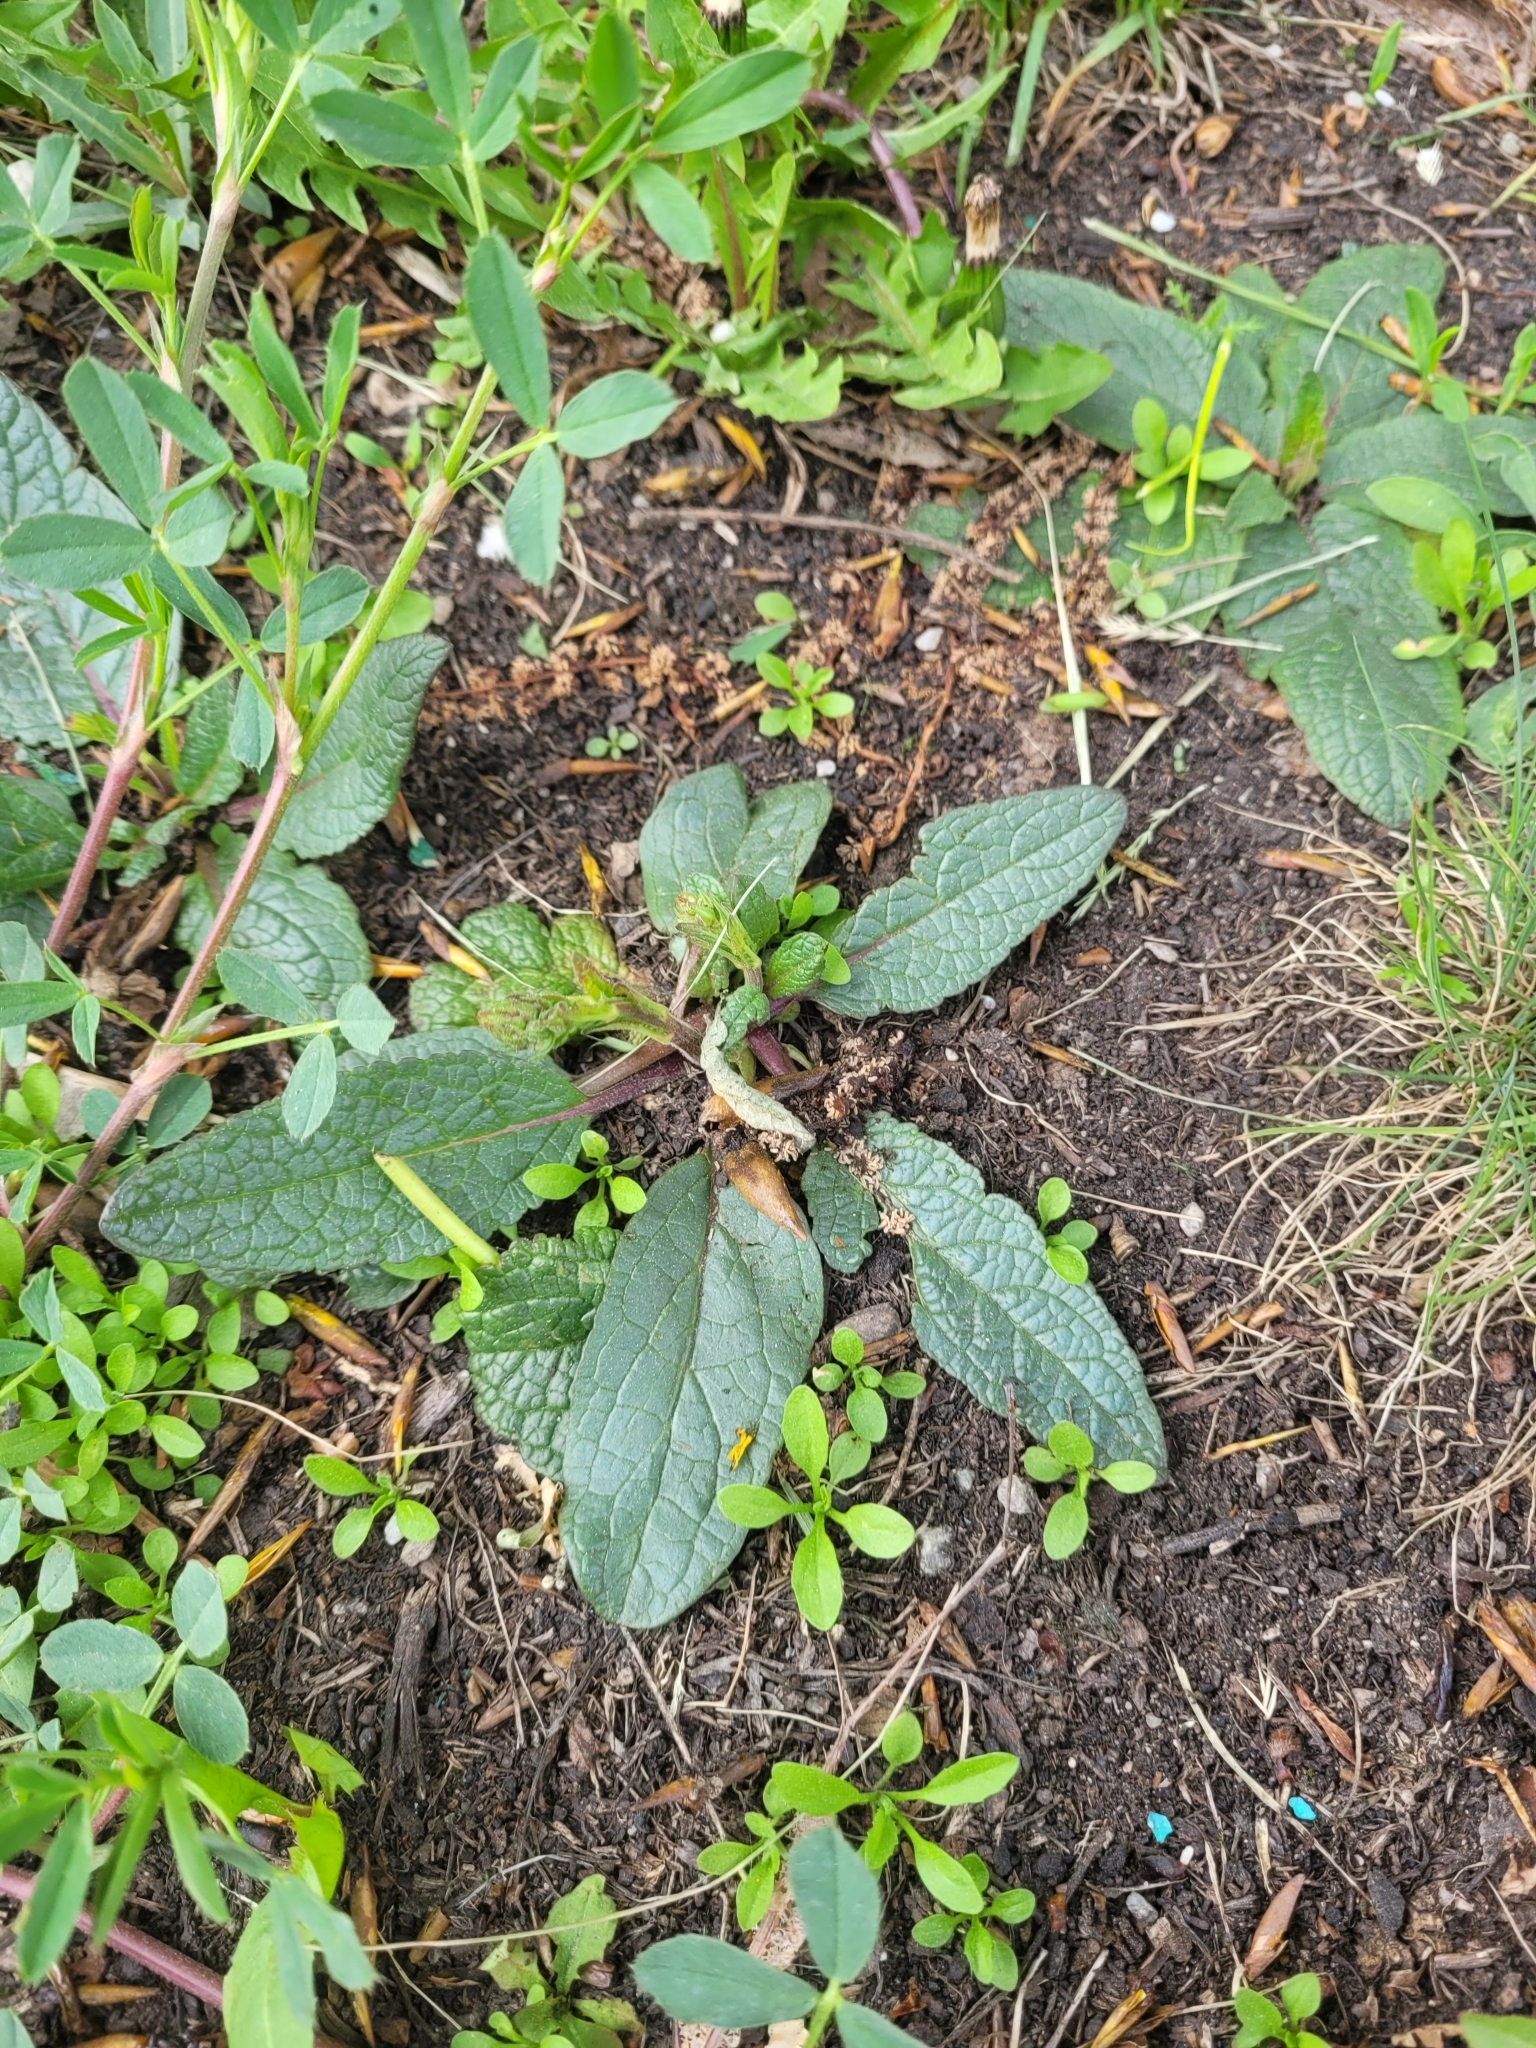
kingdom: Plantae
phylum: Tracheophyta
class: Magnoliopsida
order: Lamiales
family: Scrophulariaceae
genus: Verbascum
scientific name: Verbascum phoeniceum
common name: Purple mullein
